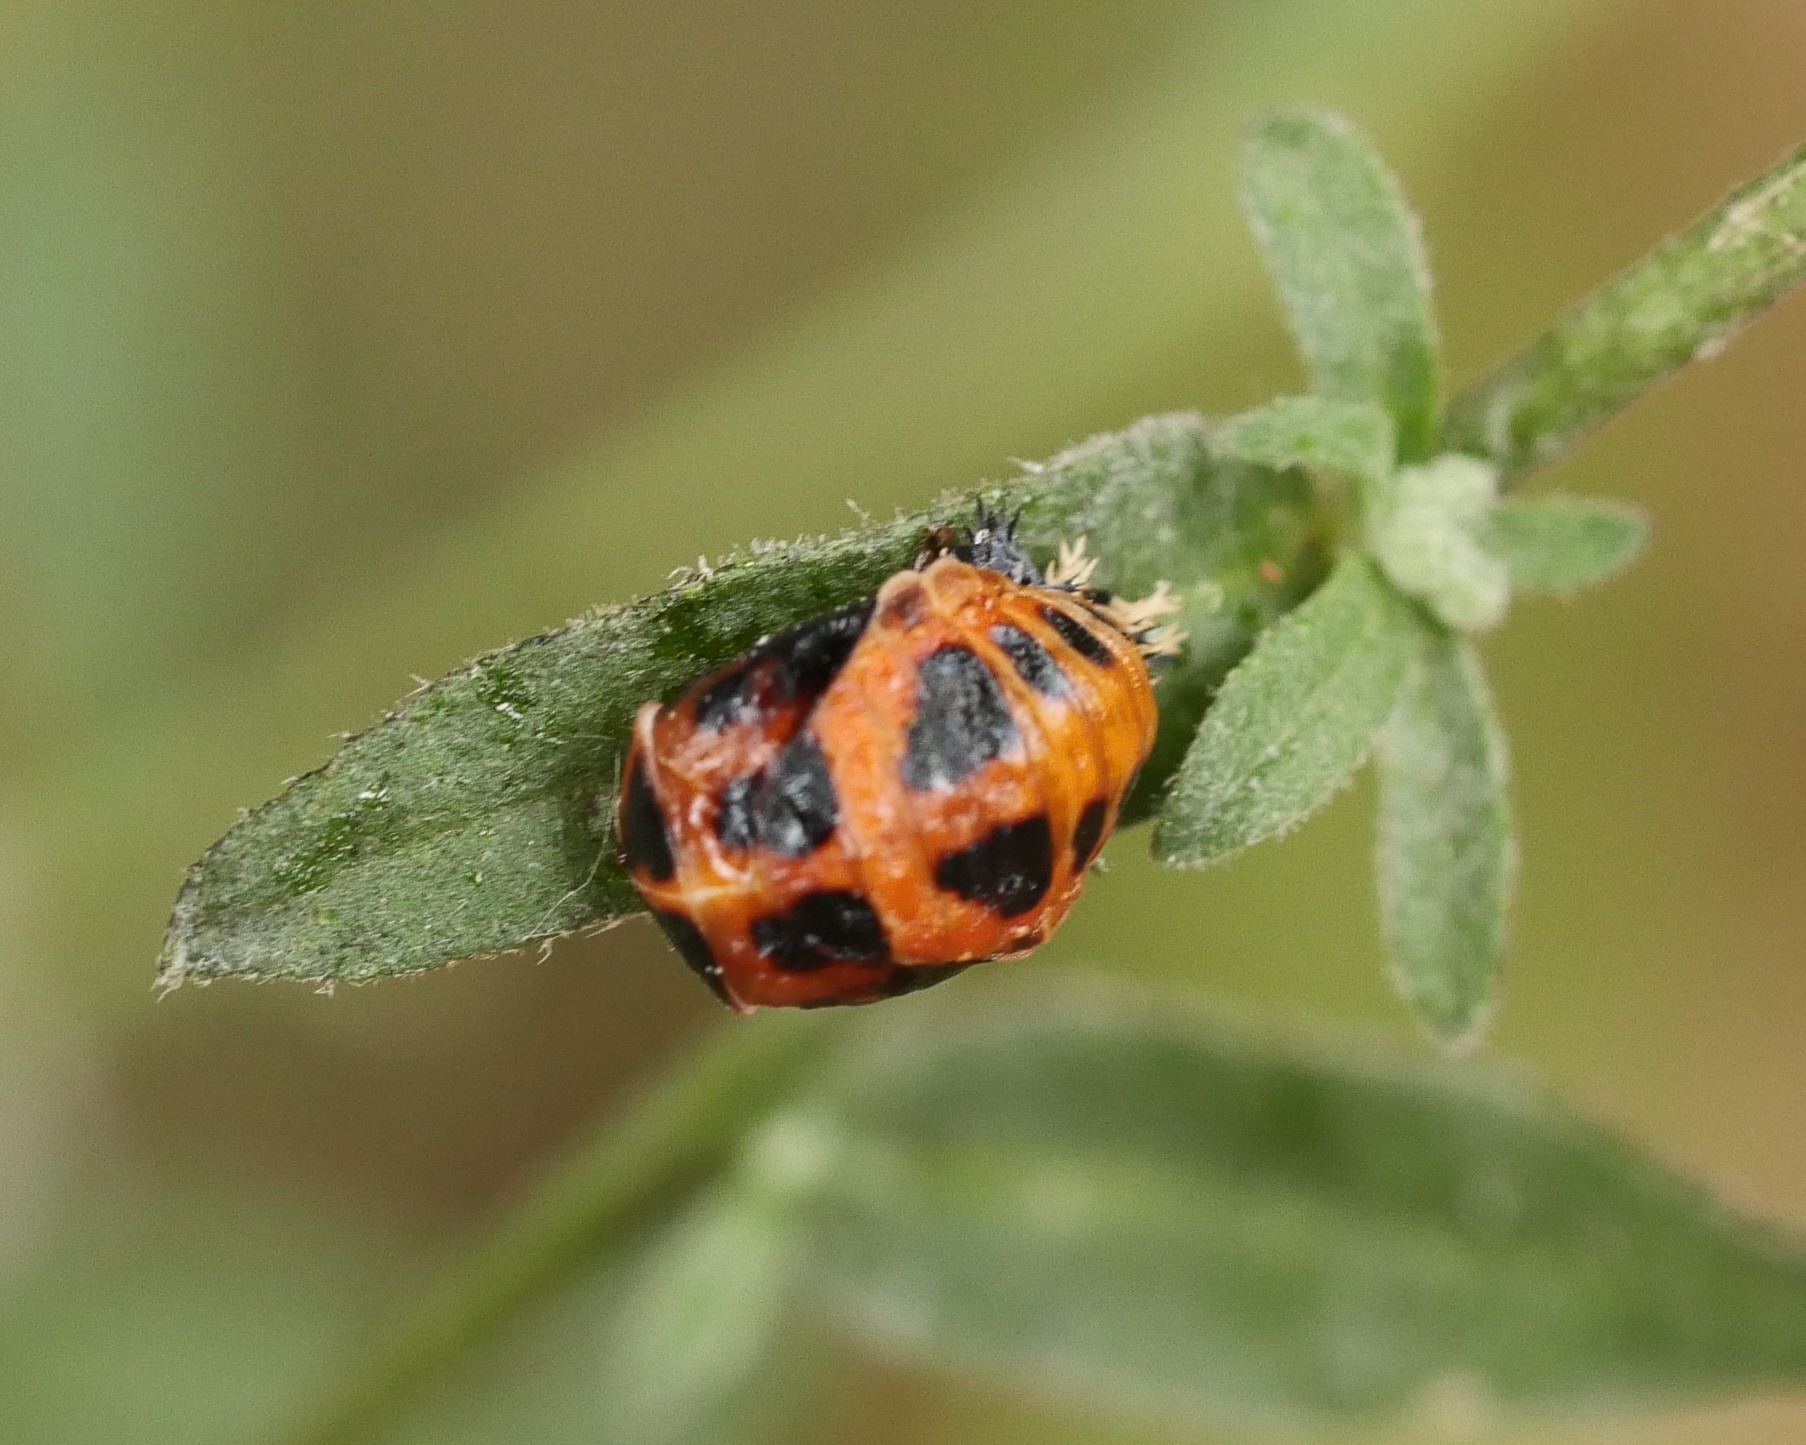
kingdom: Animalia
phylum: Arthropoda
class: Insecta
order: Coleoptera
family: Coccinellidae
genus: Harmonia
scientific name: Harmonia axyridis
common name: Harlequin ladybird
